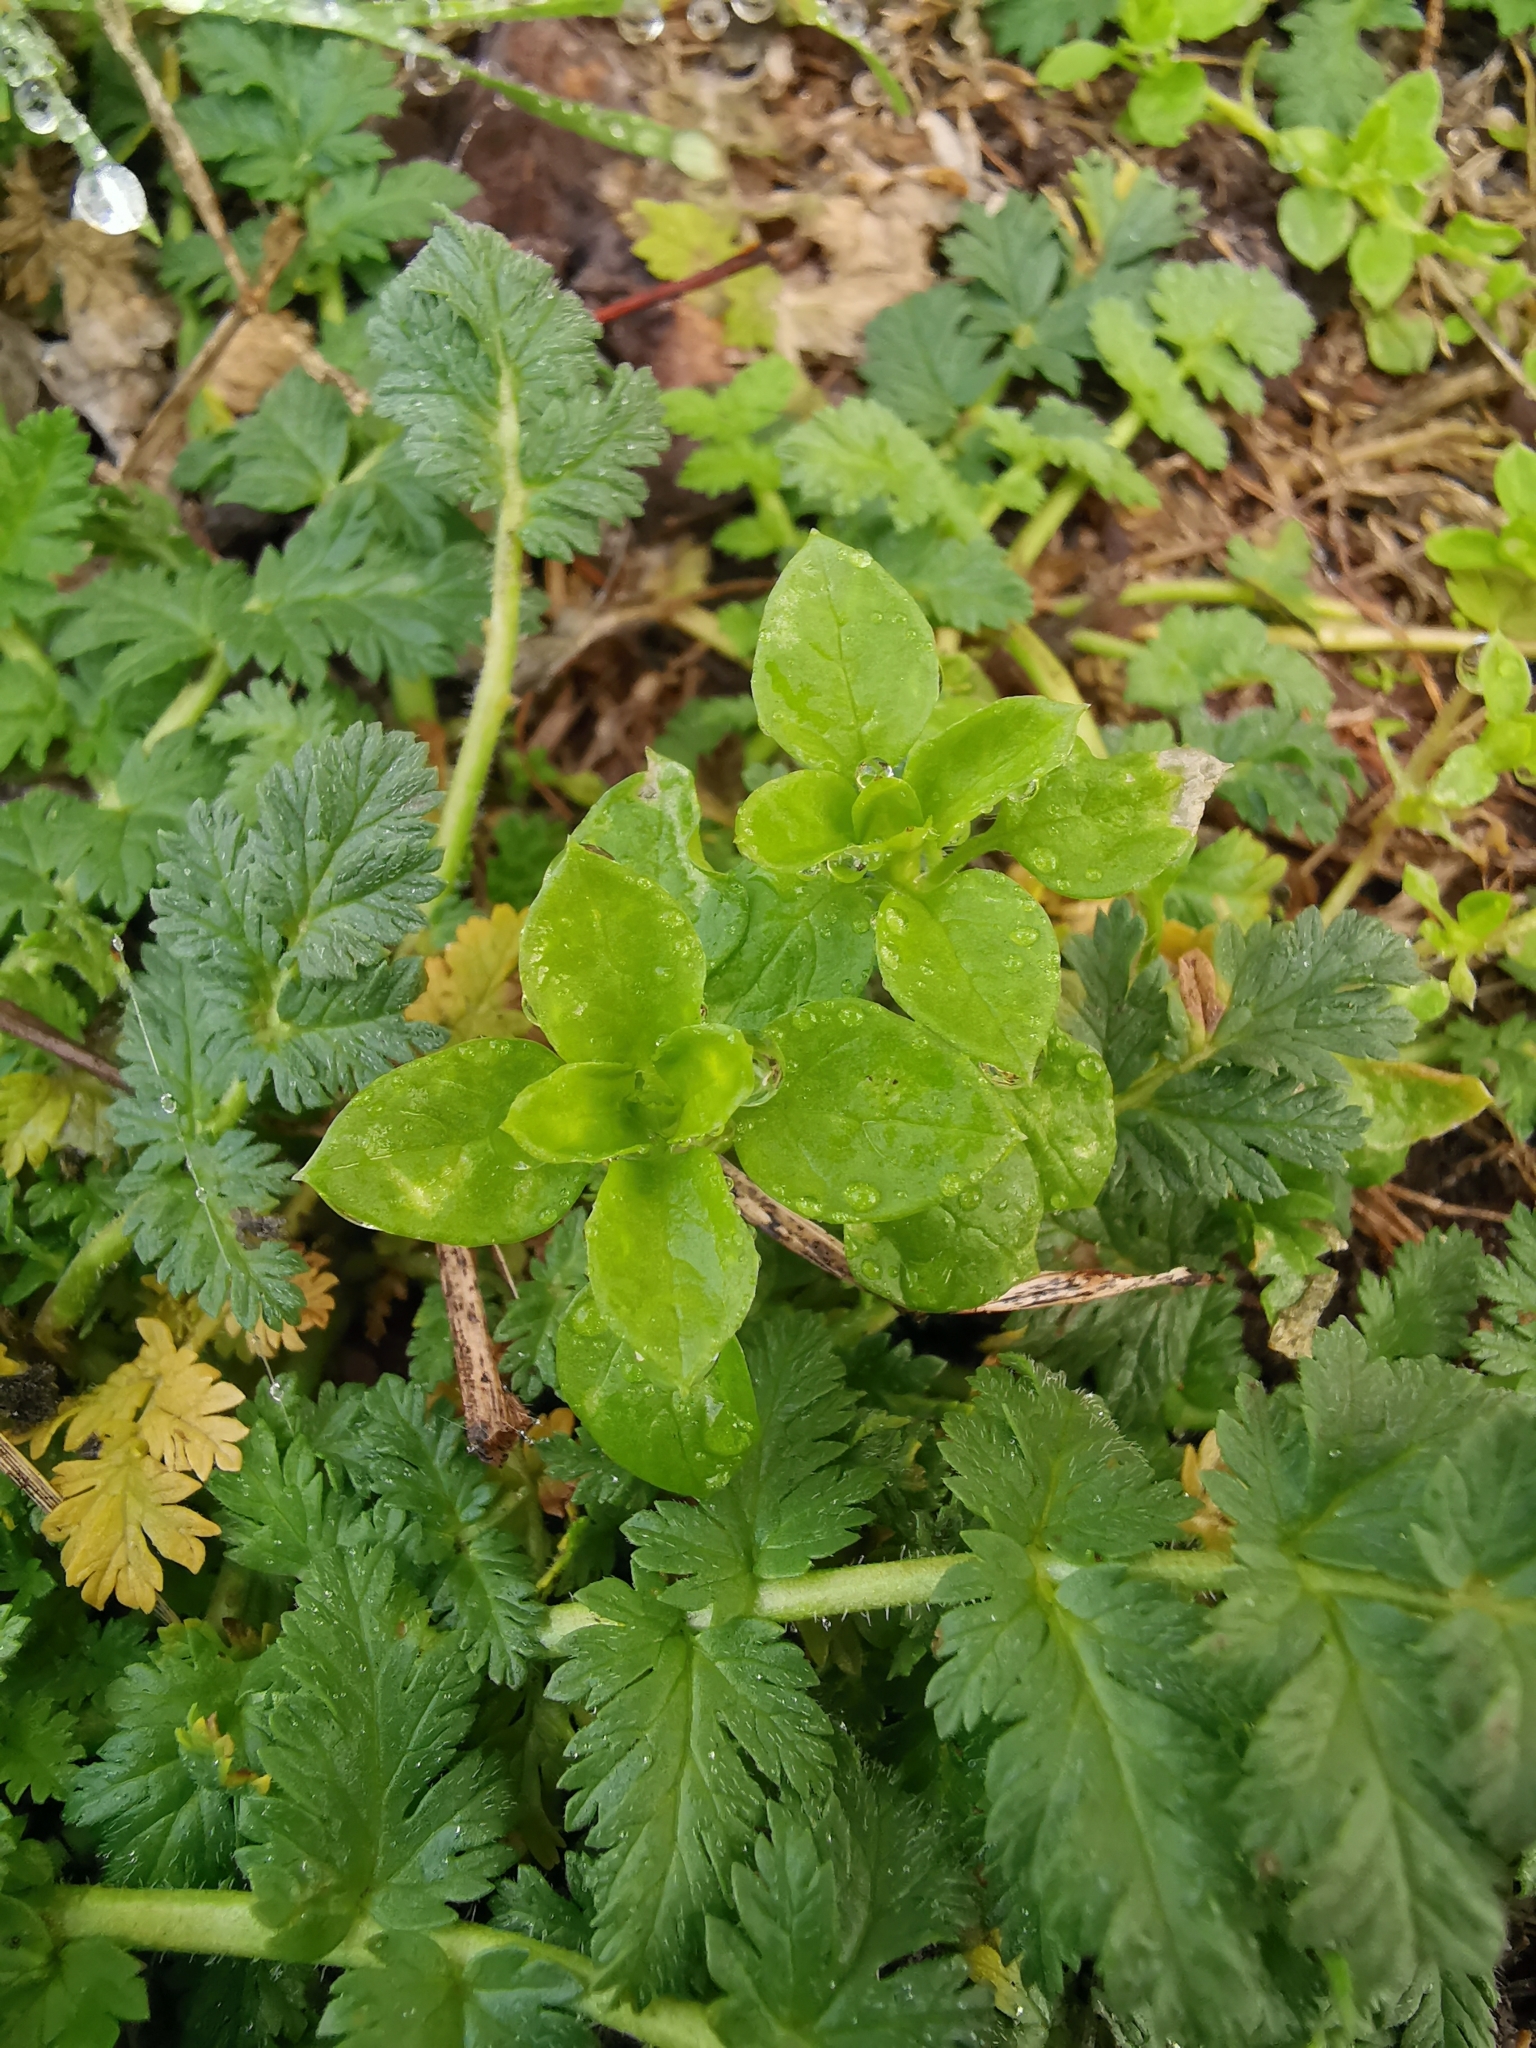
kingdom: Plantae
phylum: Tracheophyta
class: Magnoliopsida
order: Caryophyllales
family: Caryophyllaceae
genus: Stellaria
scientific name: Stellaria media
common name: Common chickweed
